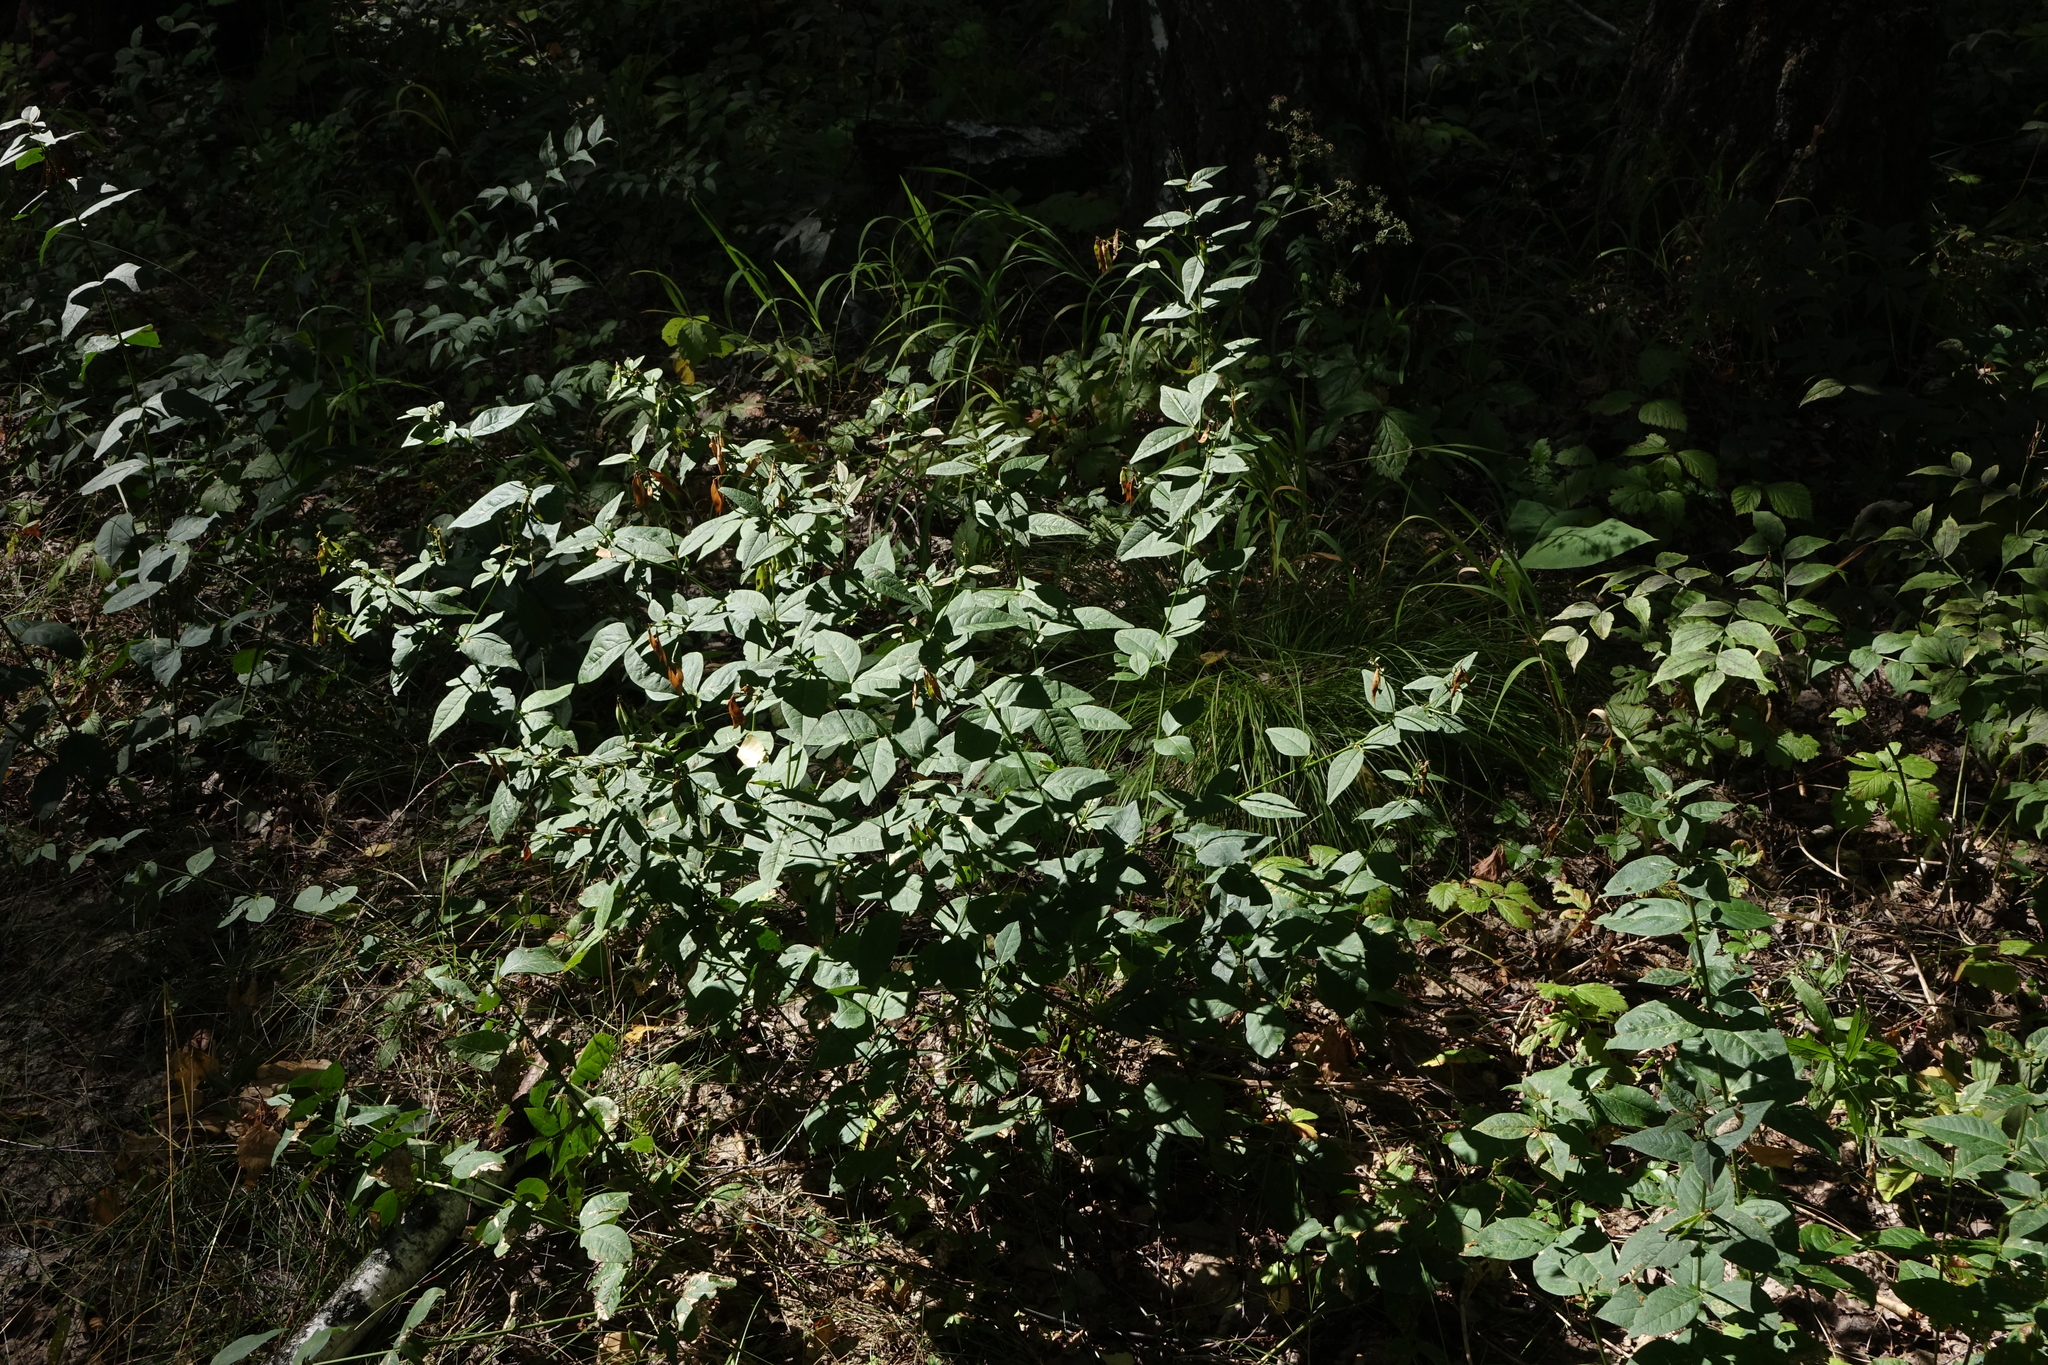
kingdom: Plantae
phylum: Tracheophyta
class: Magnoliopsida
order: Fabales
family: Fabaceae
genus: Vicia
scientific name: Vicia unijuga
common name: Two-leaf vetch
